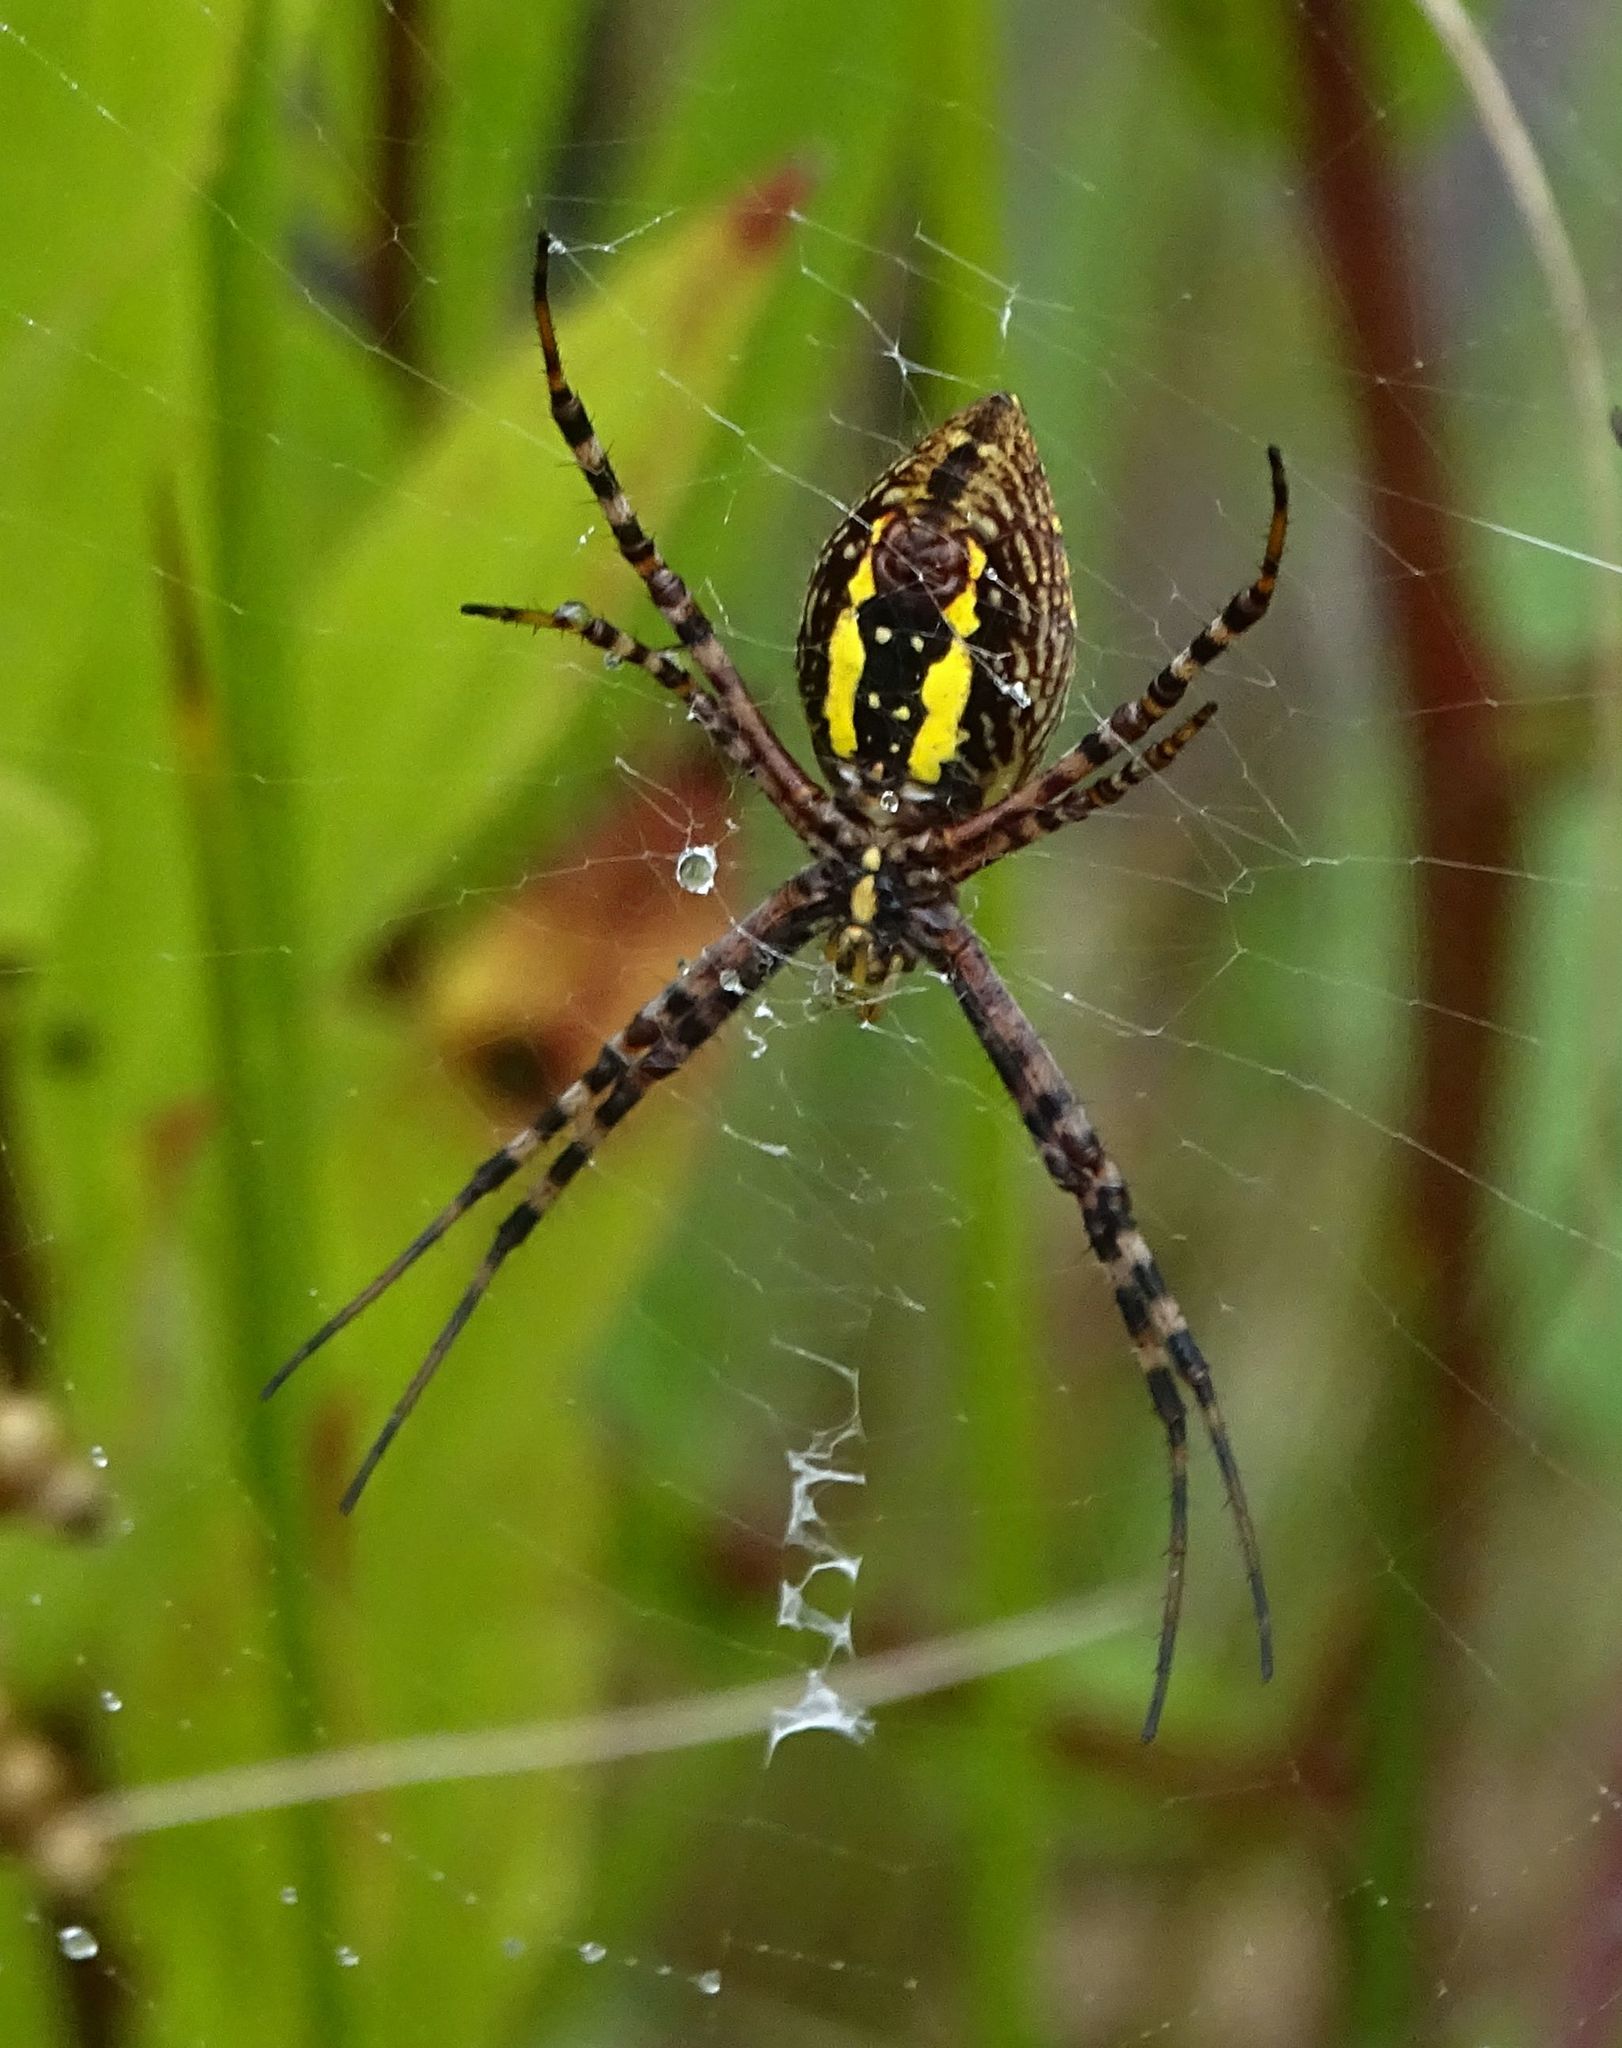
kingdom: Animalia
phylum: Arthropoda
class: Arachnida
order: Araneae
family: Araneidae
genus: Argiope
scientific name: Argiope trifasciata
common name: Banded garden spider
